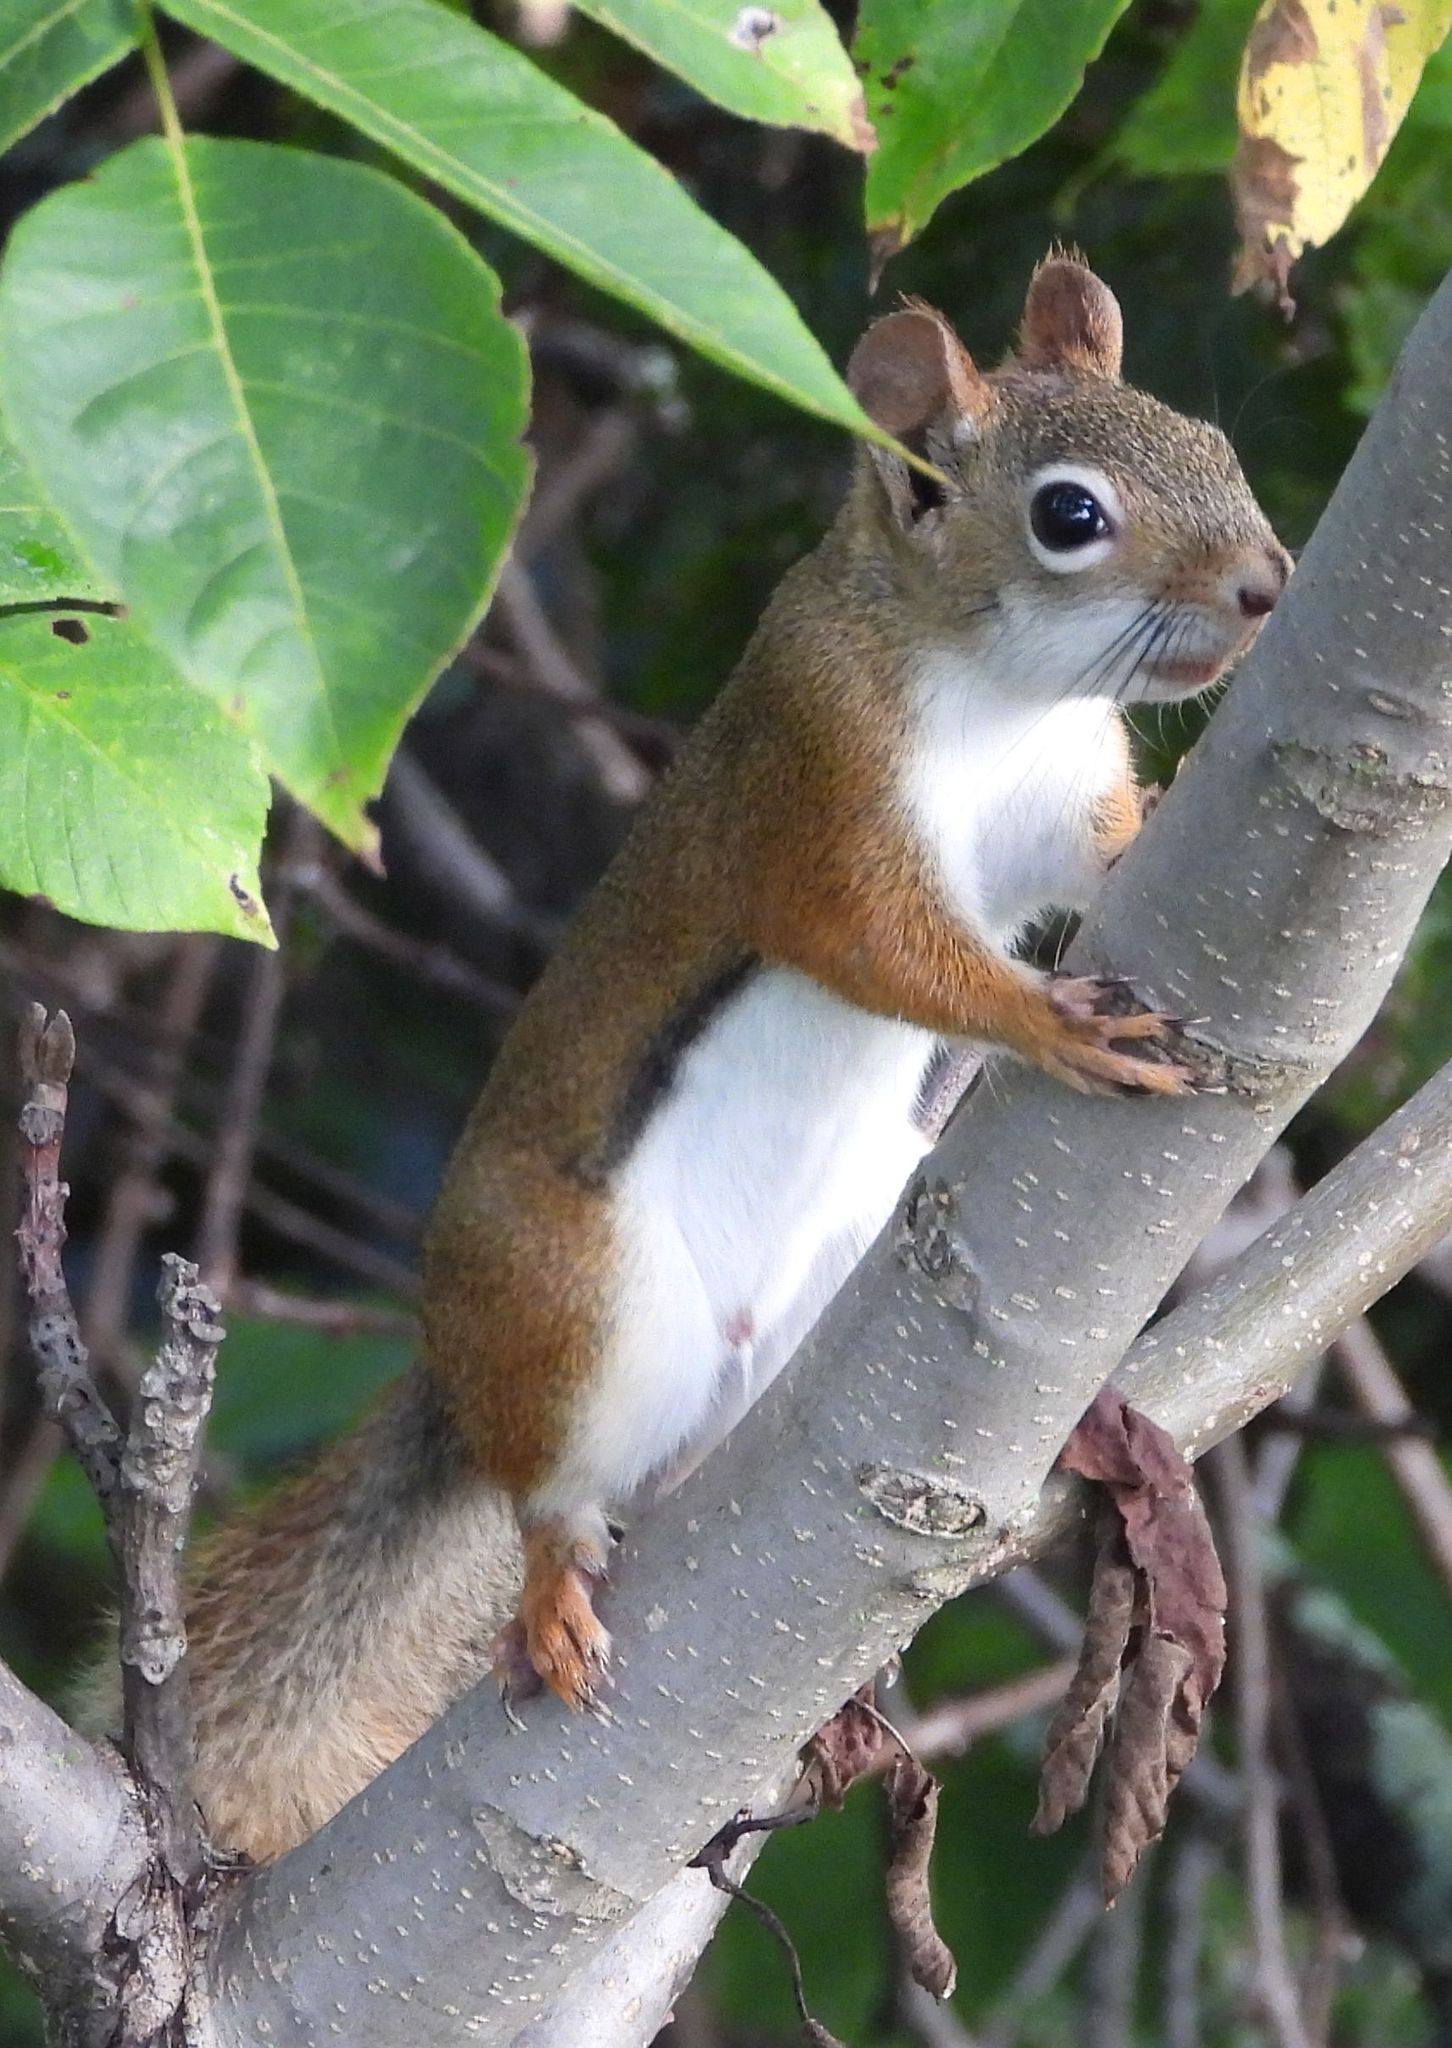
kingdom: Animalia
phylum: Chordata
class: Mammalia
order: Rodentia
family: Sciuridae
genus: Tamiasciurus
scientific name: Tamiasciurus hudsonicus
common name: Red squirrel
